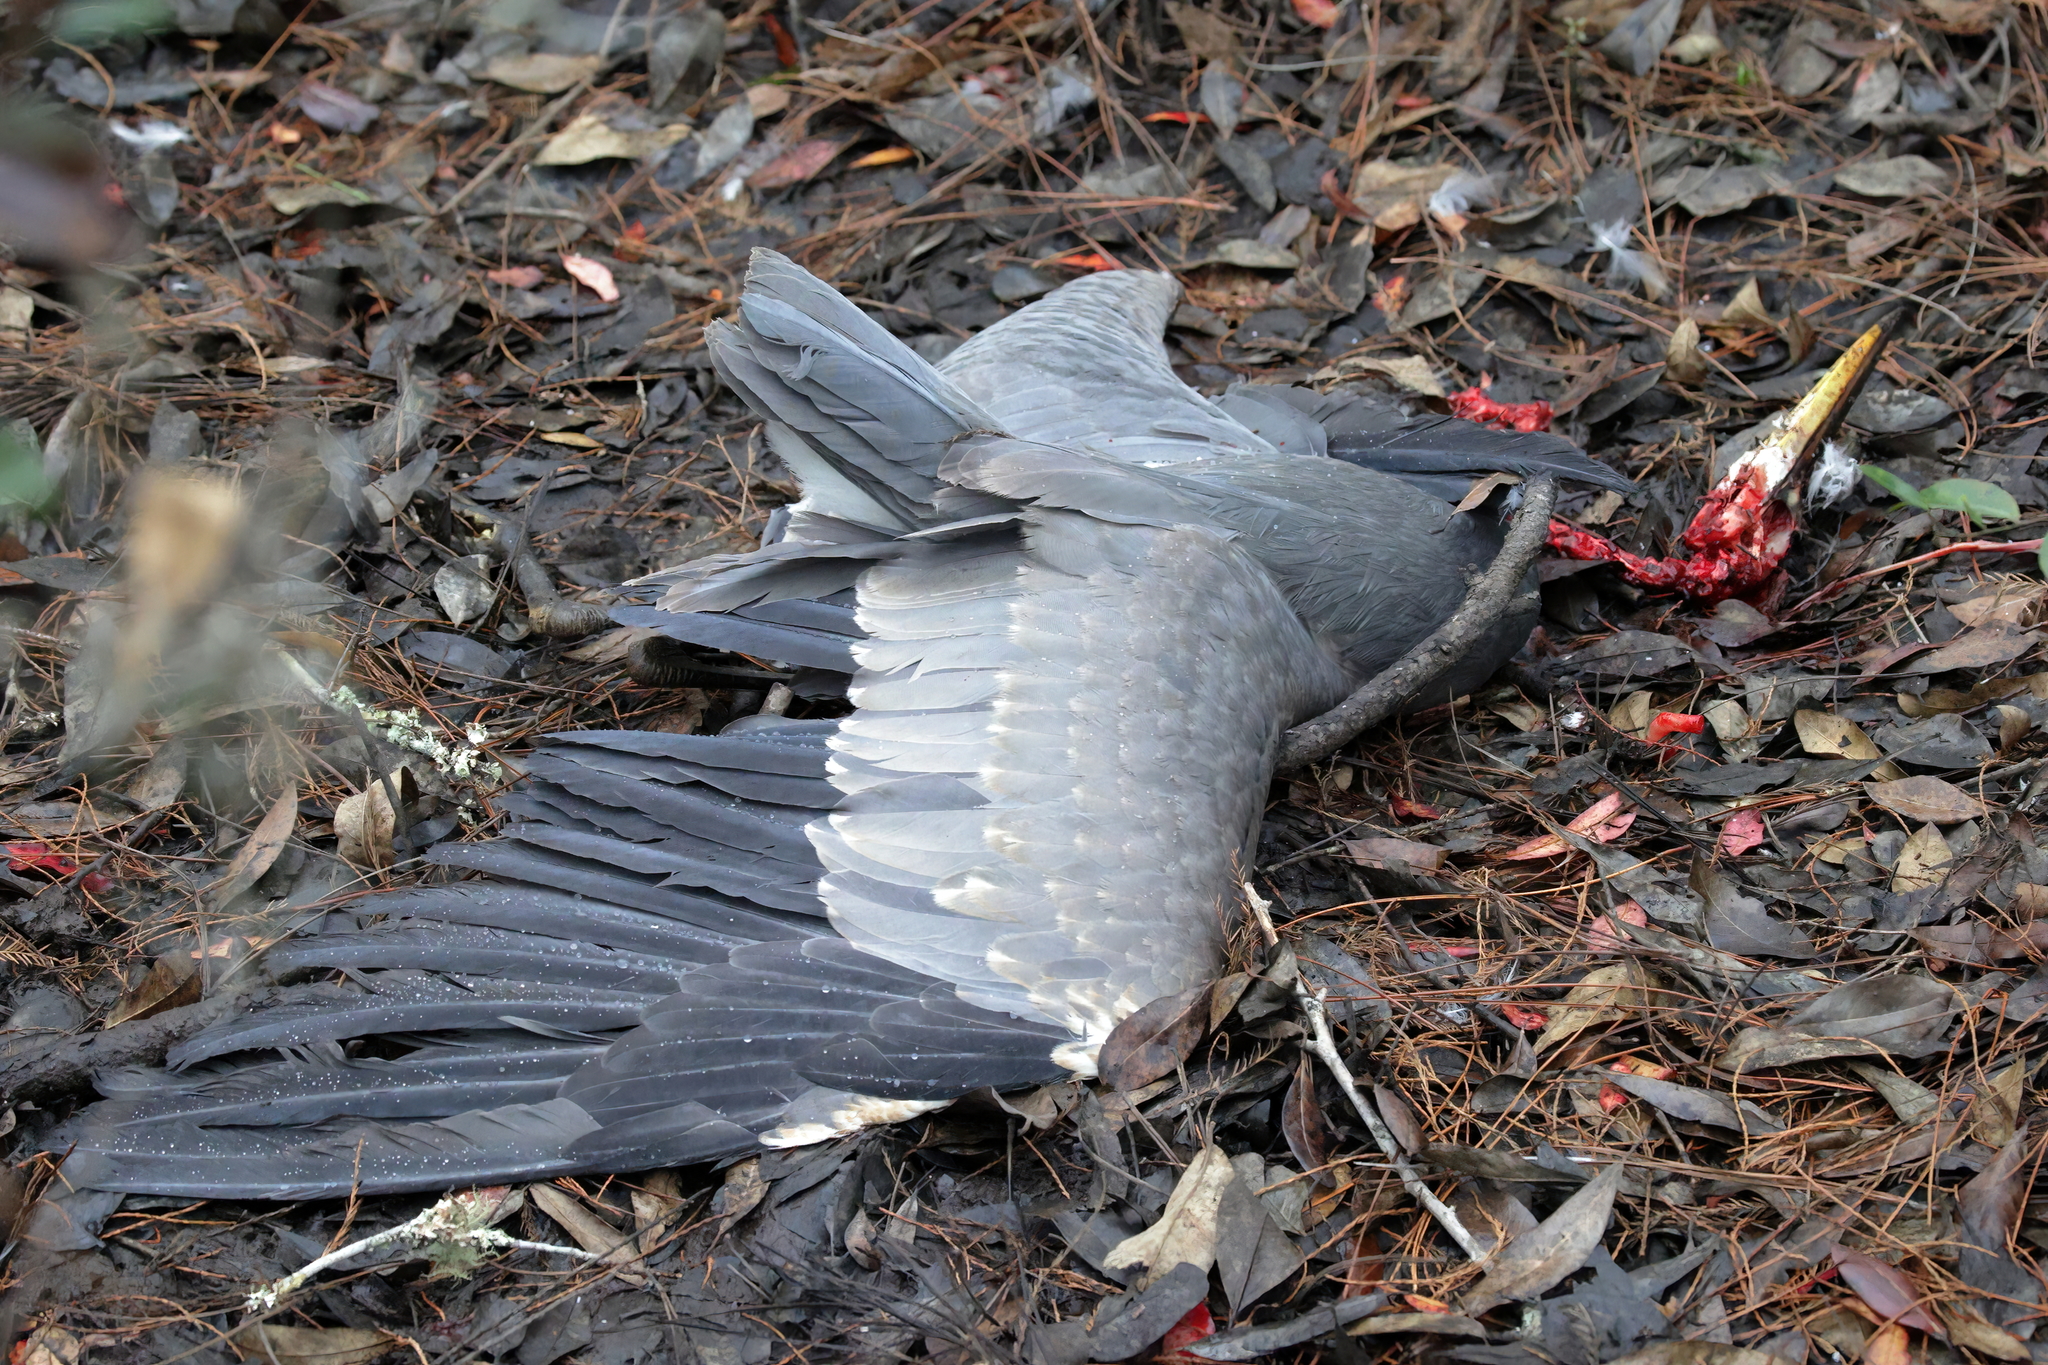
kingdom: Animalia
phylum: Chordata
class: Aves
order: Pelecaniformes
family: Ardeidae
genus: Ardea
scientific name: Ardea herodias
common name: Great blue heron
